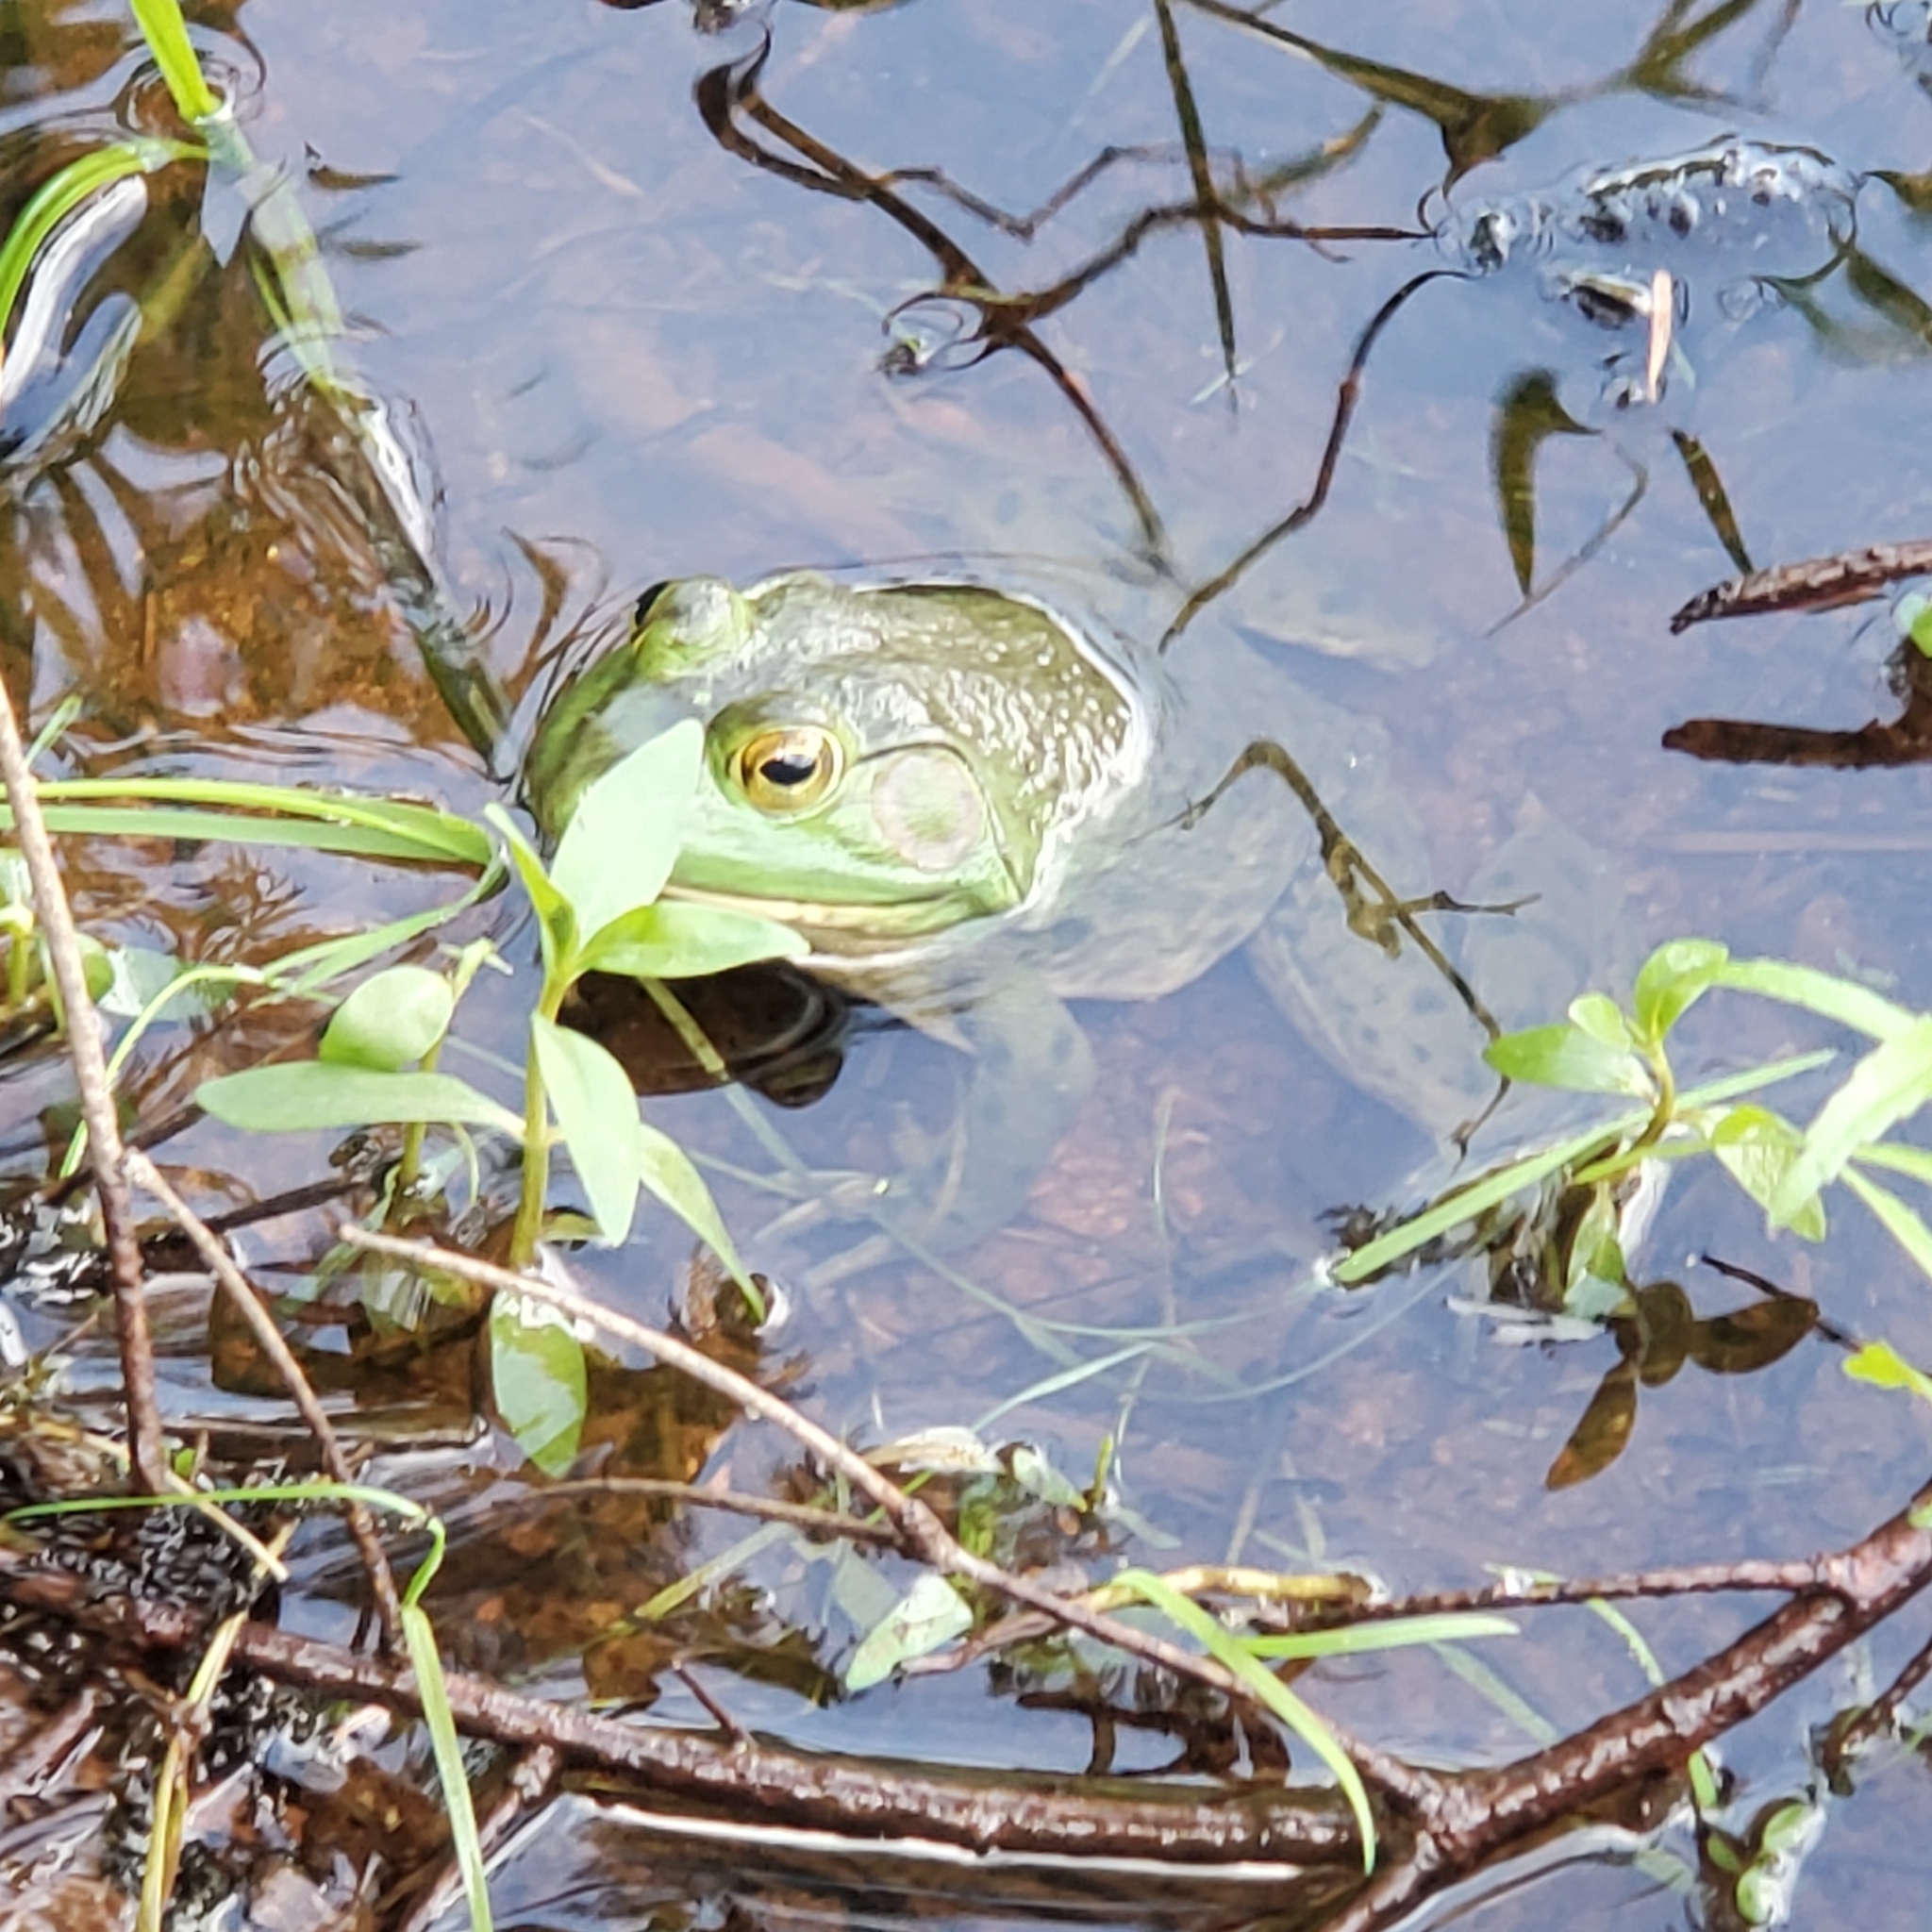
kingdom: Animalia
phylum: Chordata
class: Amphibia
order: Anura
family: Ranidae
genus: Lithobates
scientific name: Lithobates catesbeianus
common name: American bullfrog
